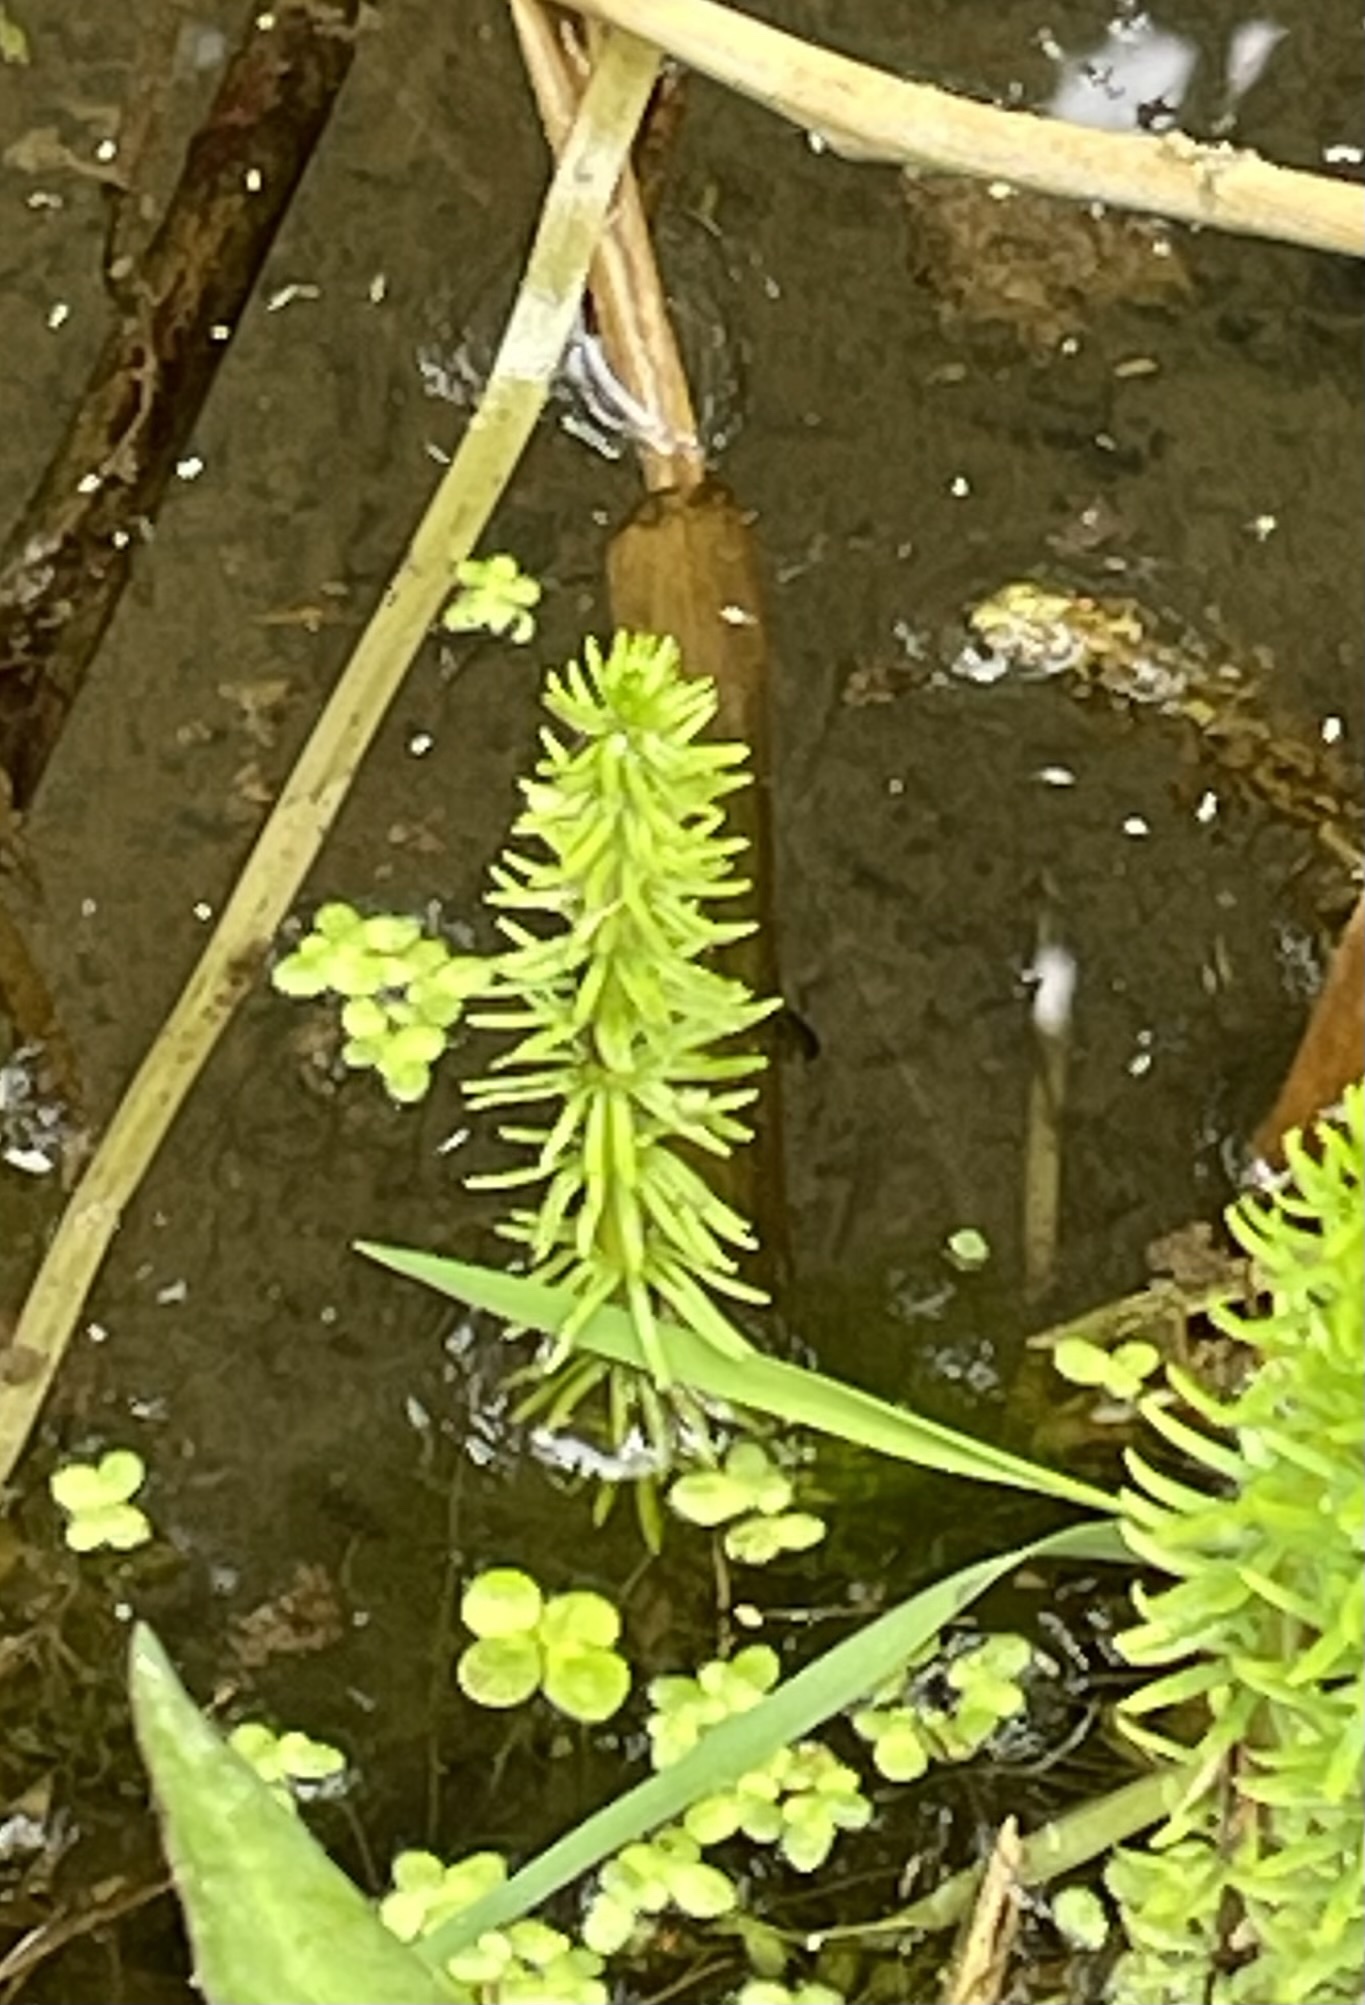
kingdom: Plantae
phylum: Tracheophyta
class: Magnoliopsida
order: Lamiales
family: Plantaginaceae
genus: Hippuris
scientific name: Hippuris vulgaris
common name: Mare's-tail
